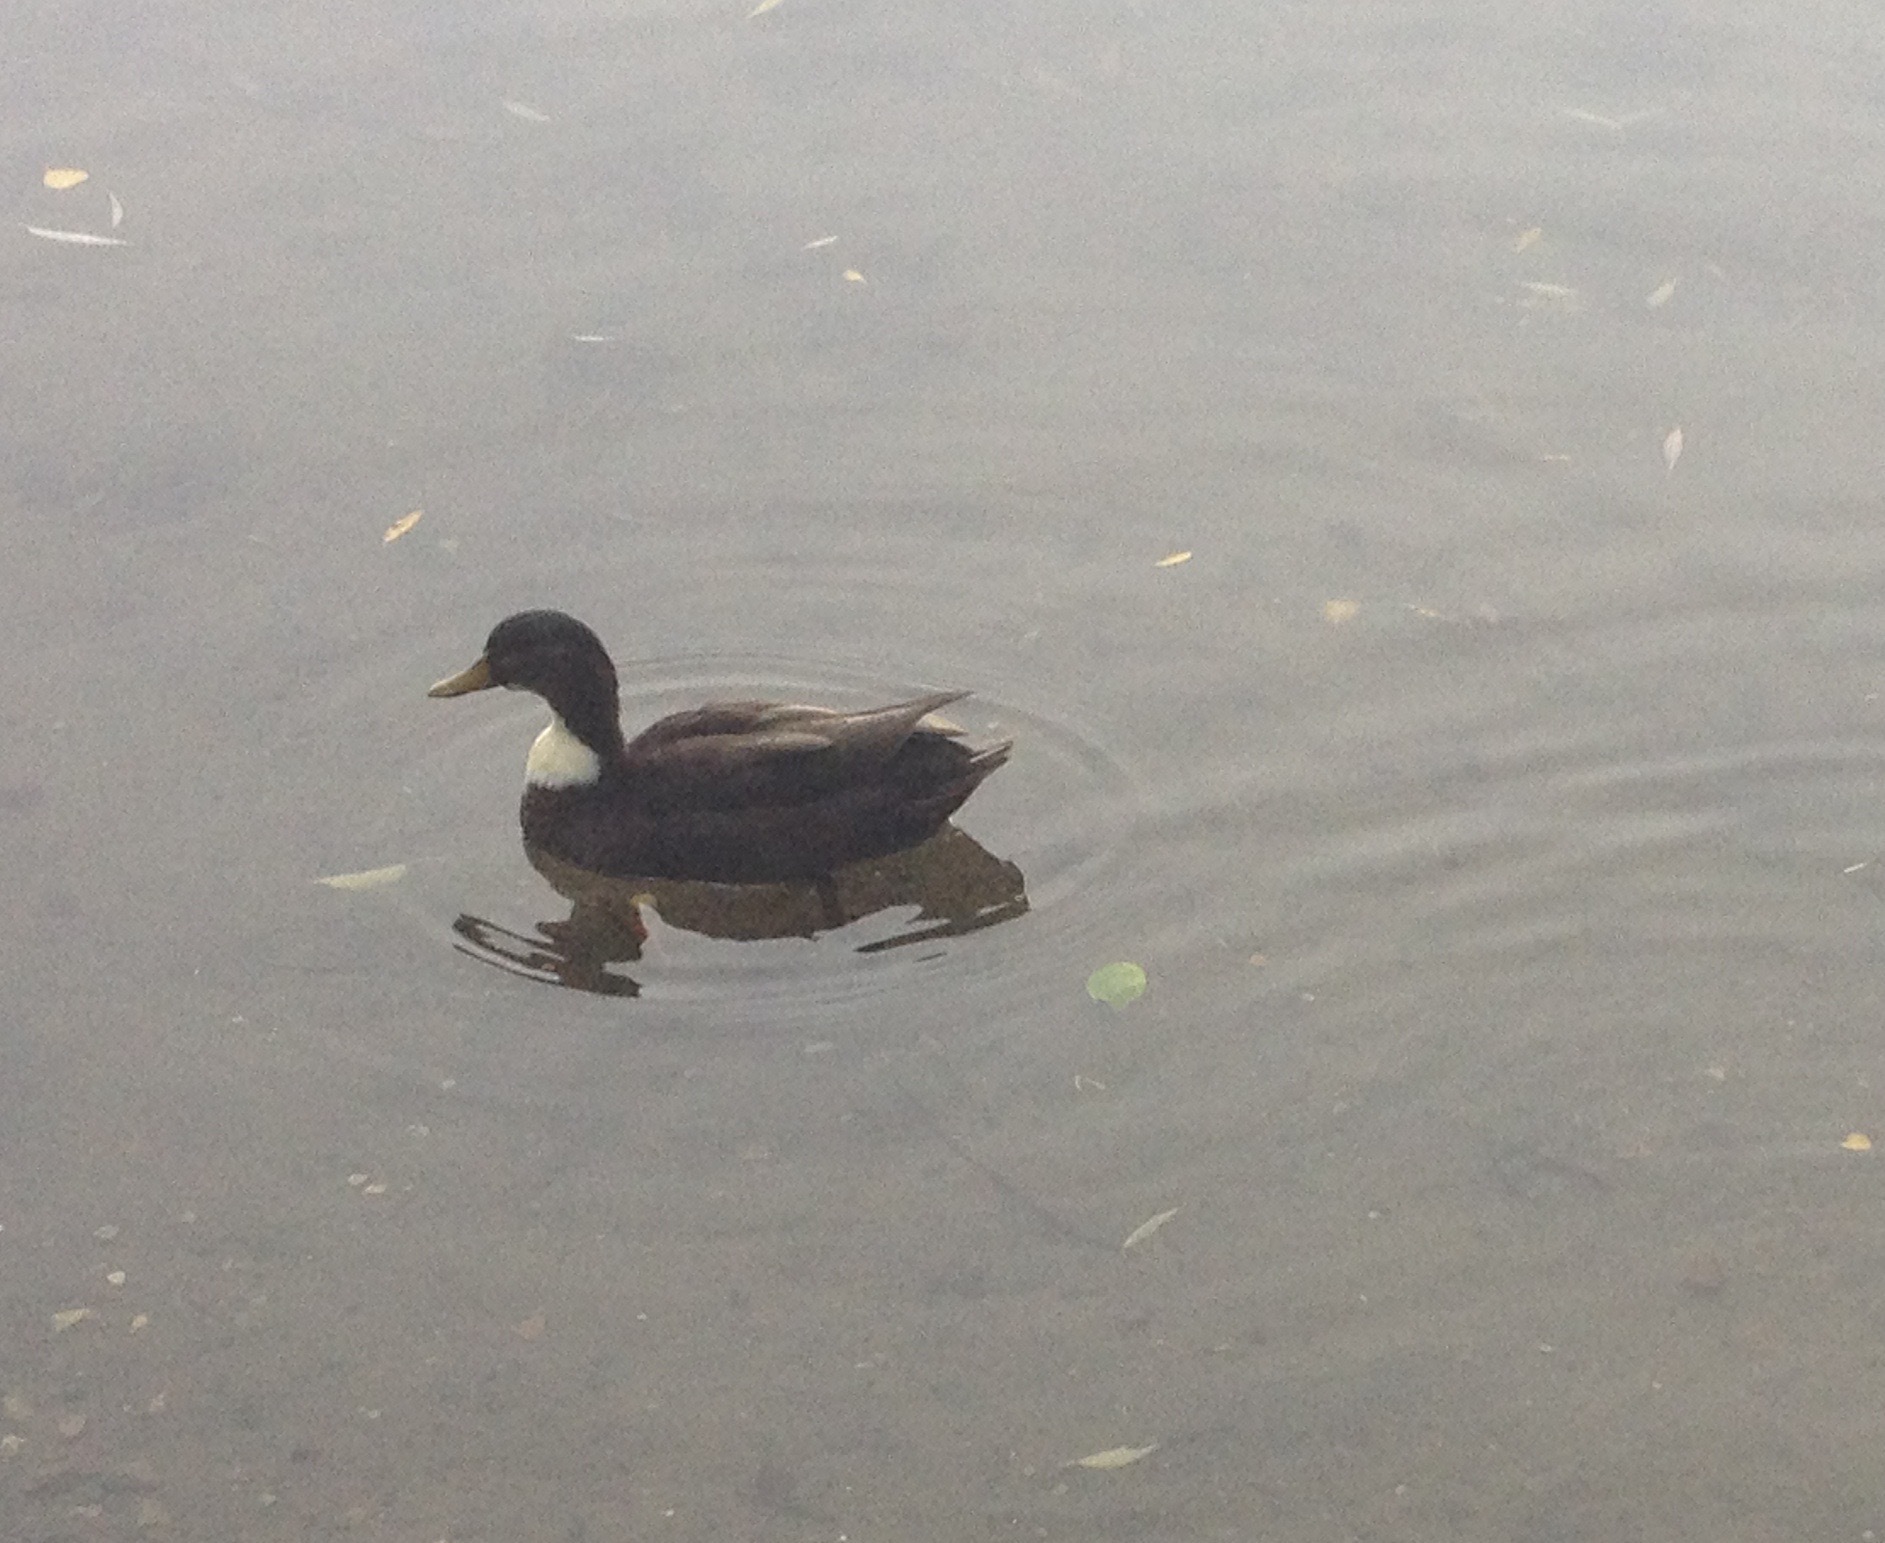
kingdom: Animalia
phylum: Chordata
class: Aves
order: Anseriformes
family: Anatidae
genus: Anas
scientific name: Anas platyrhynchos
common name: Mallard
